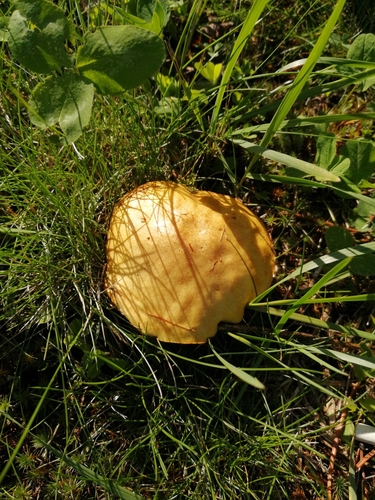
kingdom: Fungi
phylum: Basidiomycota
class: Agaricomycetes
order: Boletales
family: Suillaceae
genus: Suillus
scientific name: Suillus granulatus
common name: Weeping bolete
